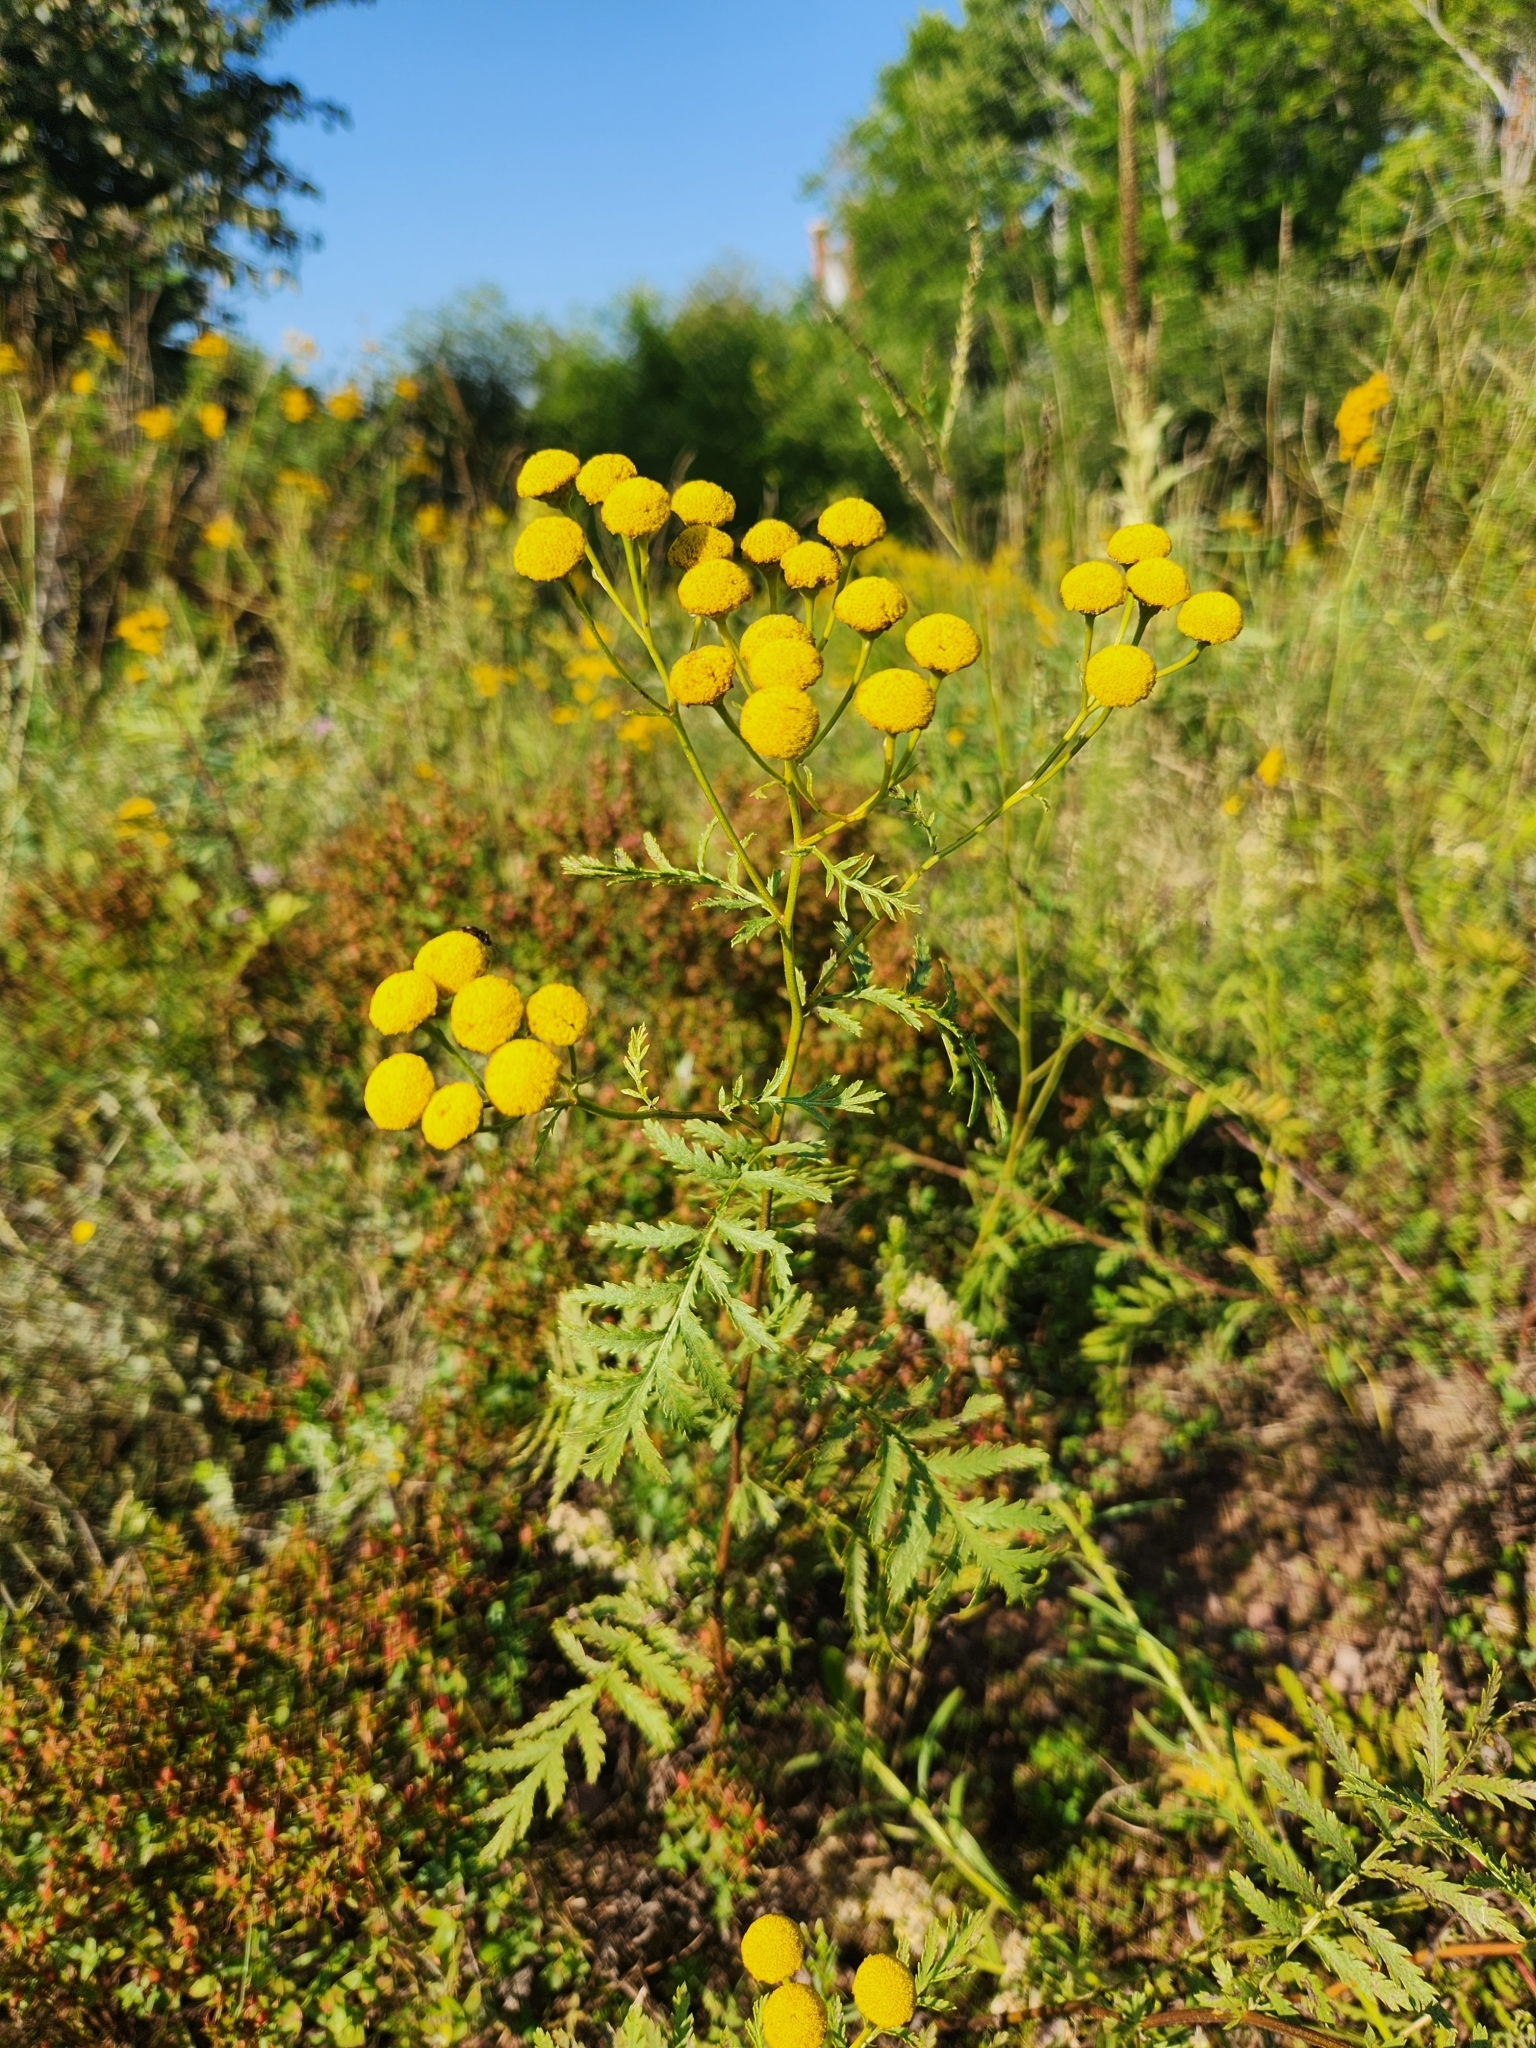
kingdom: Plantae
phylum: Tracheophyta
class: Magnoliopsida
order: Asterales
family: Asteraceae
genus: Tanacetum
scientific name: Tanacetum vulgare
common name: Common tansy
